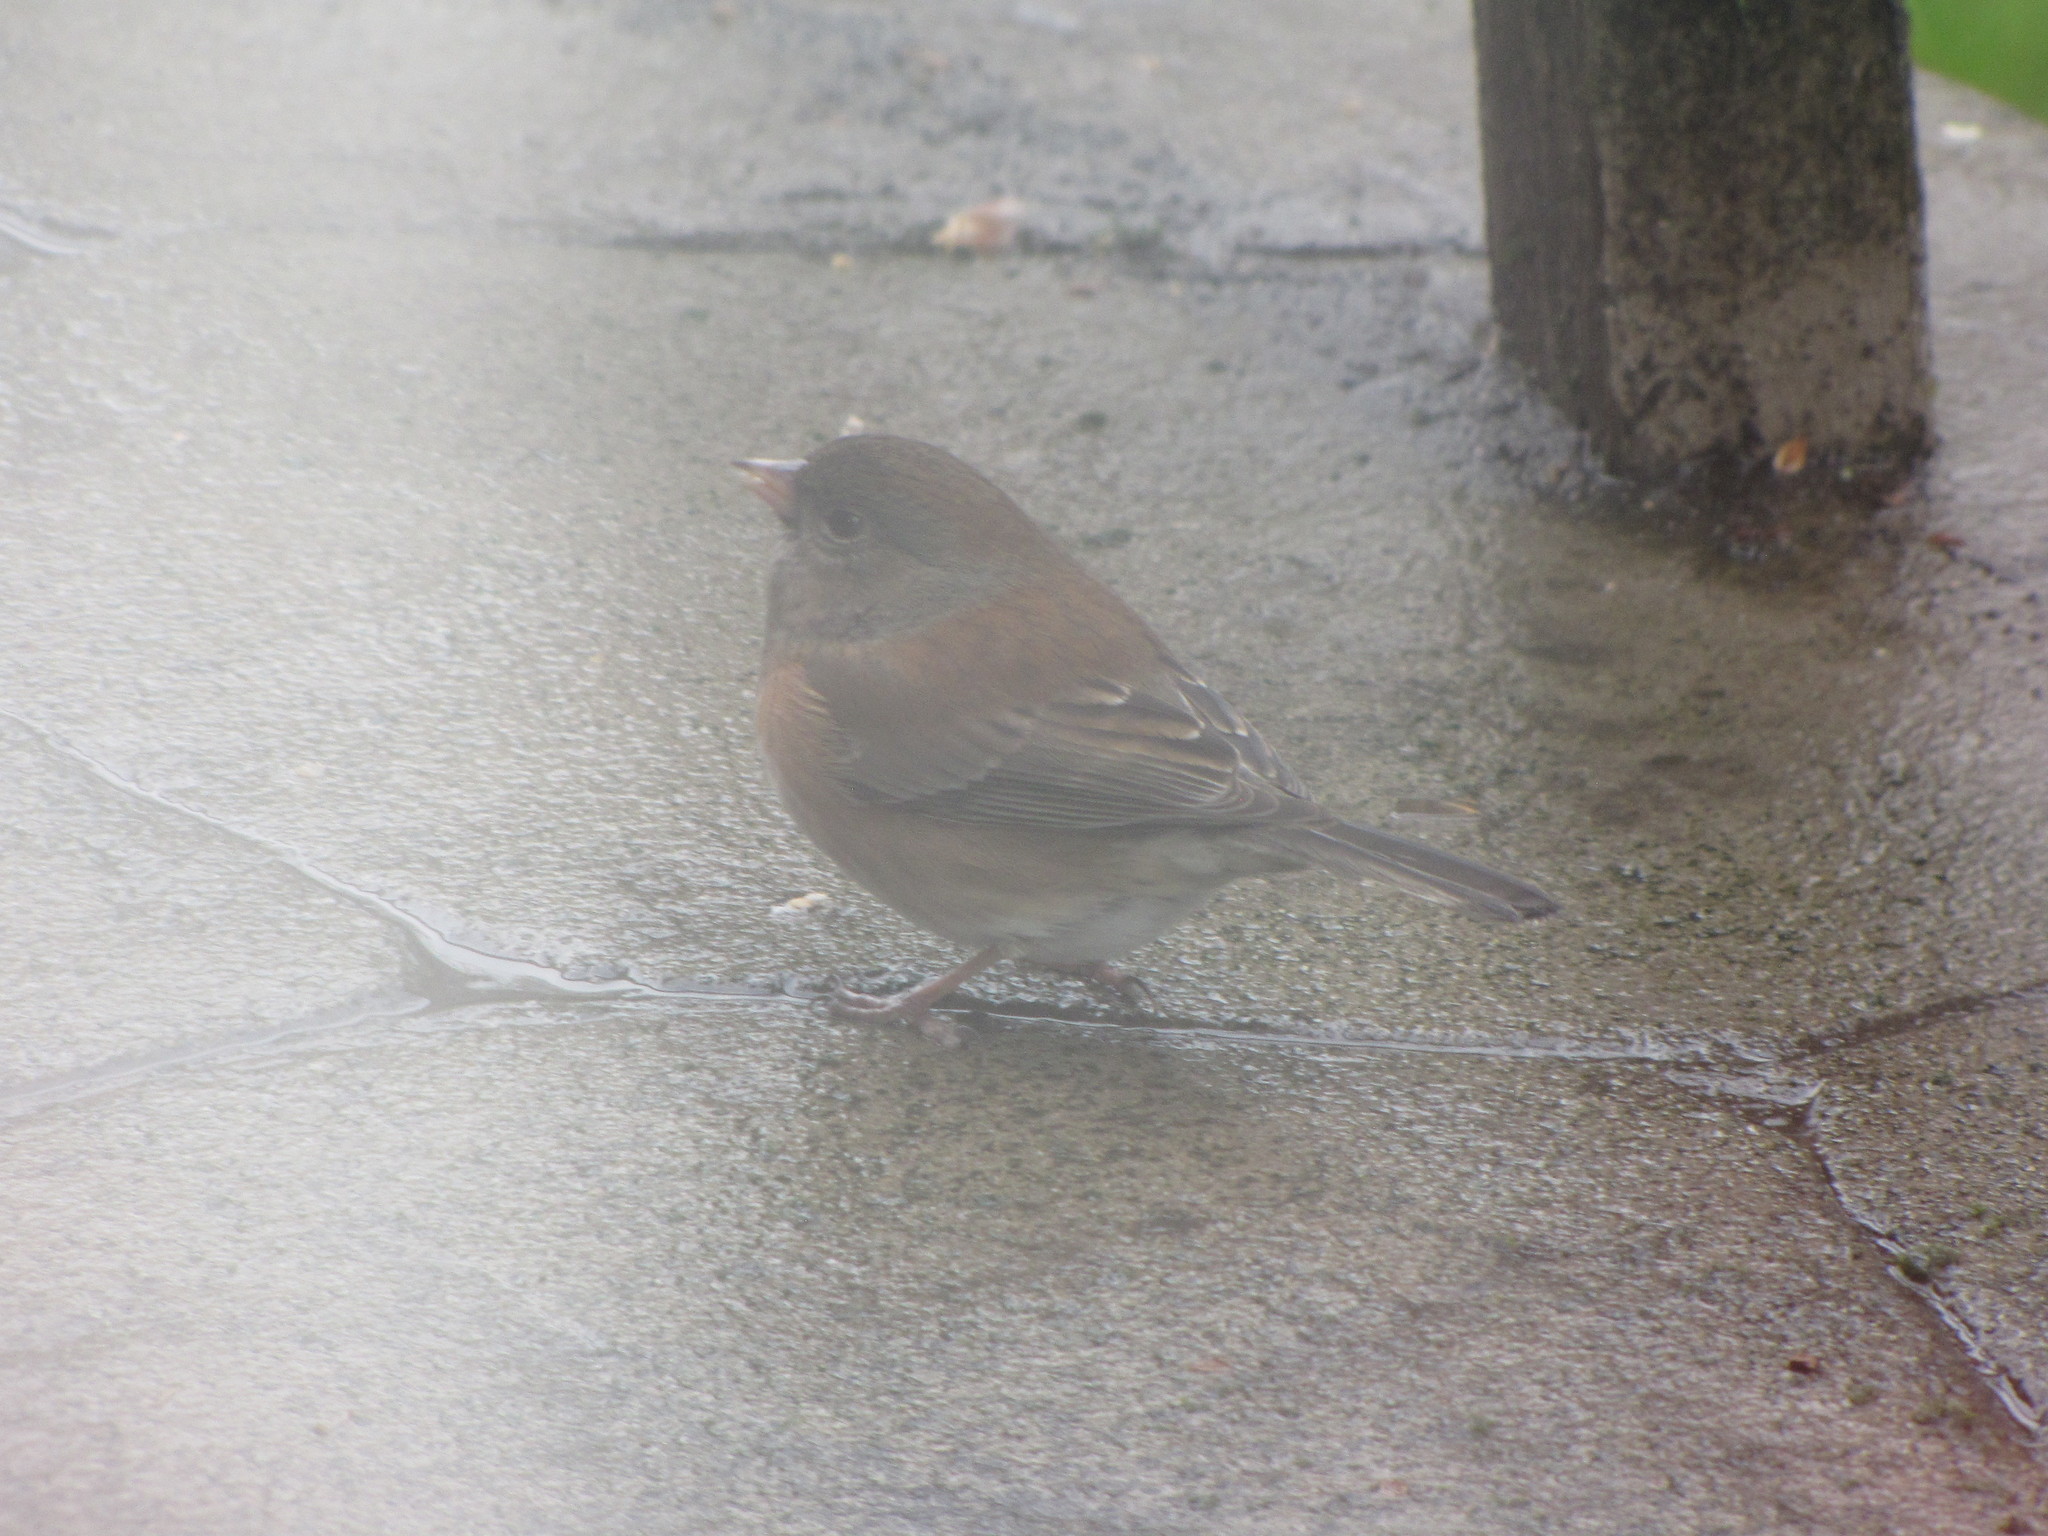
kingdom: Animalia
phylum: Chordata
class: Aves
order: Passeriformes
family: Passerellidae
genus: Junco
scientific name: Junco hyemalis
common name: Dark-eyed junco
